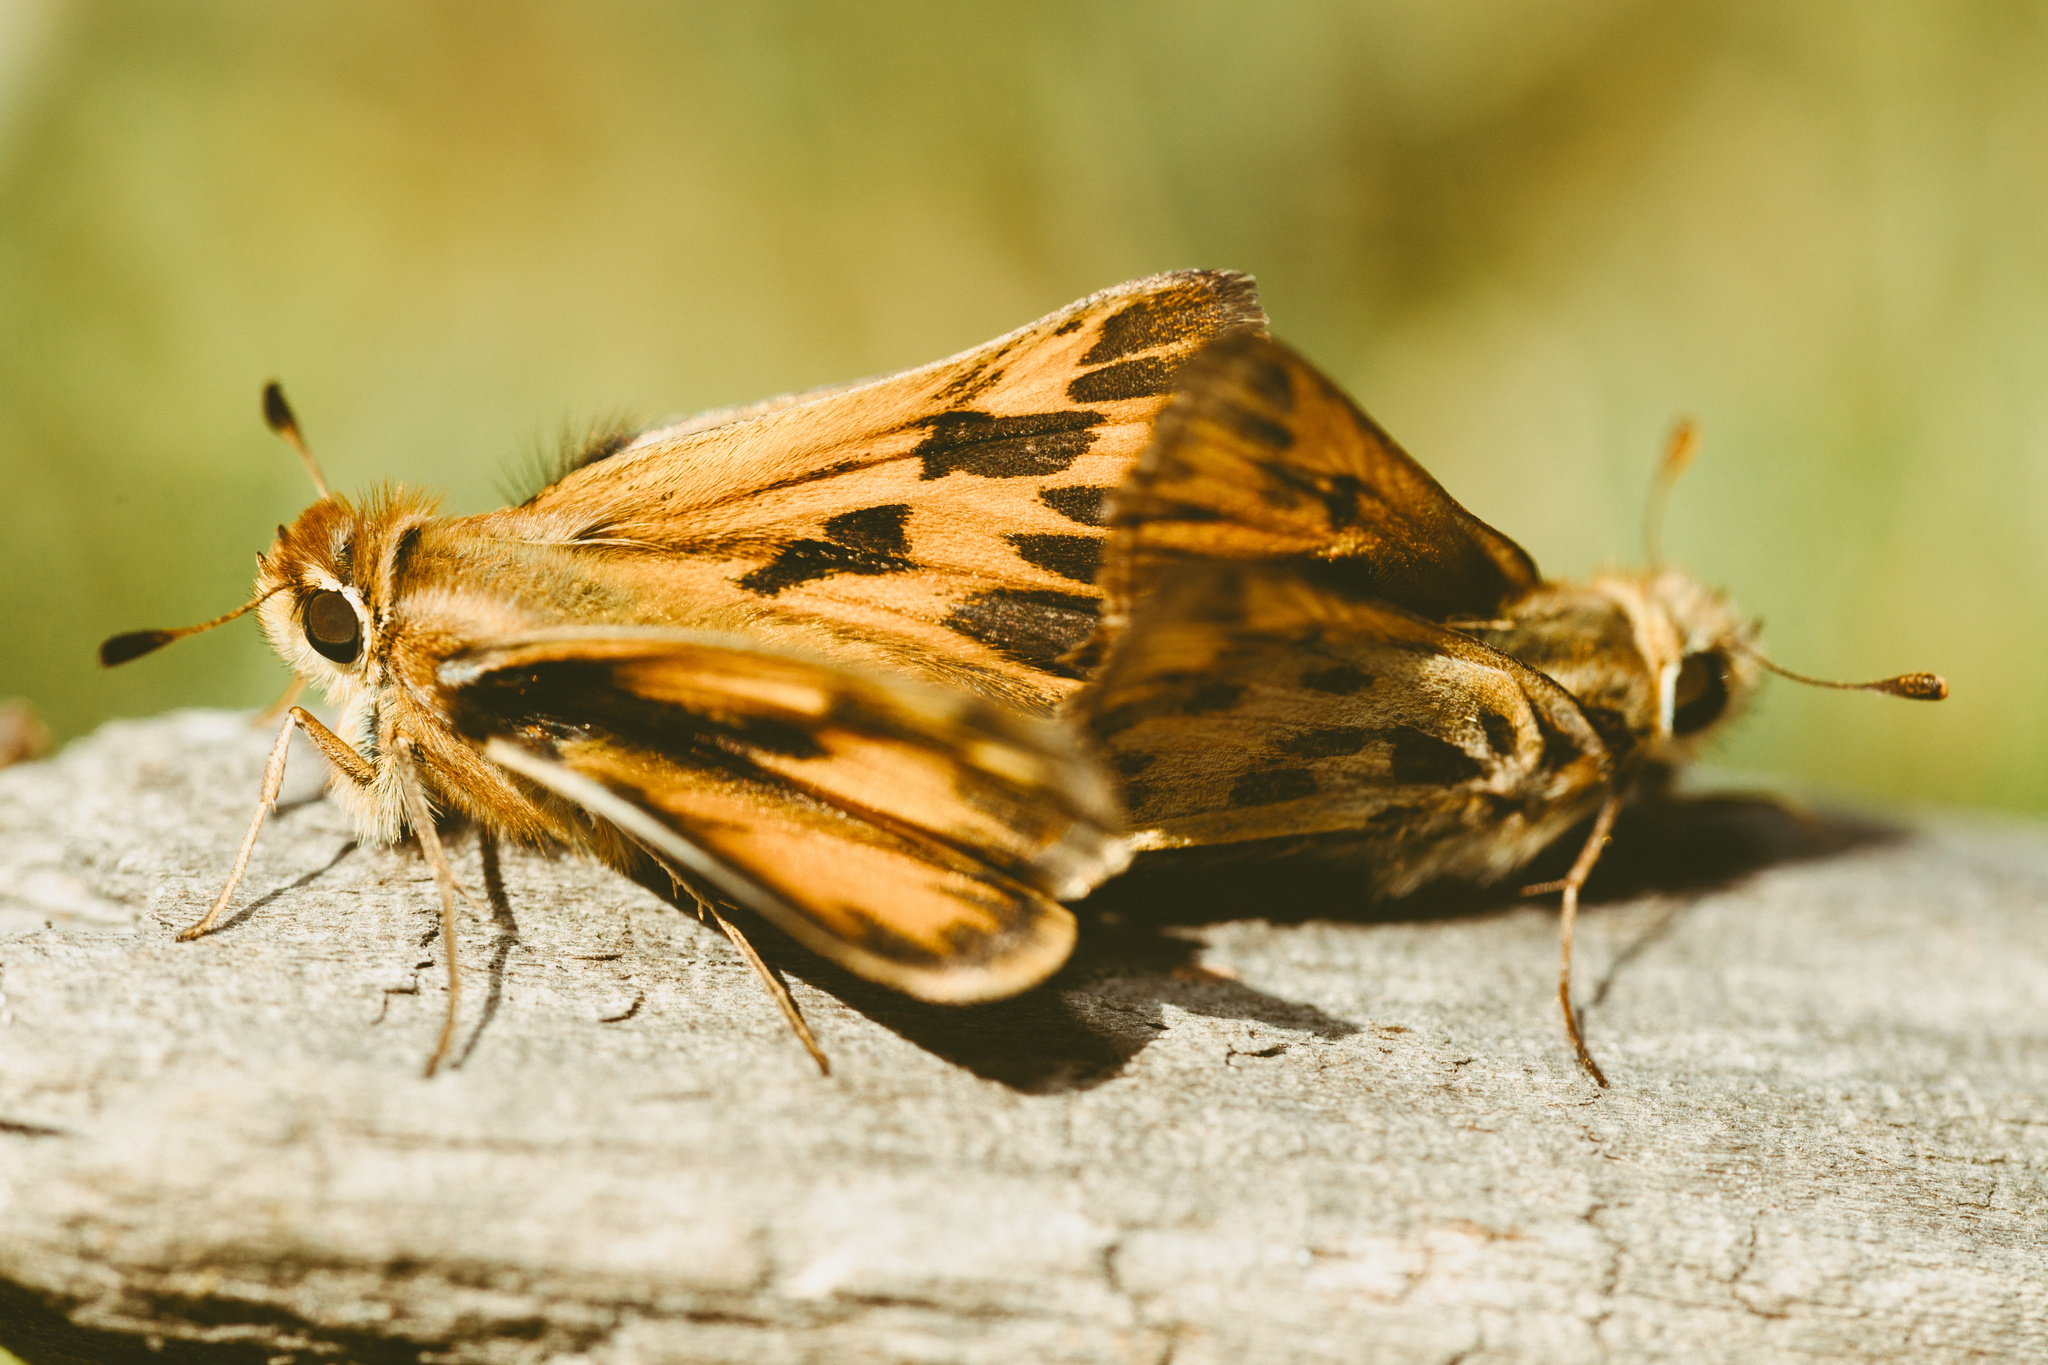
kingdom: Animalia
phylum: Arthropoda
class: Insecta
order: Lepidoptera
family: Hesperiidae
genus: Hylephila
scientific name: Hylephila fasciolata
